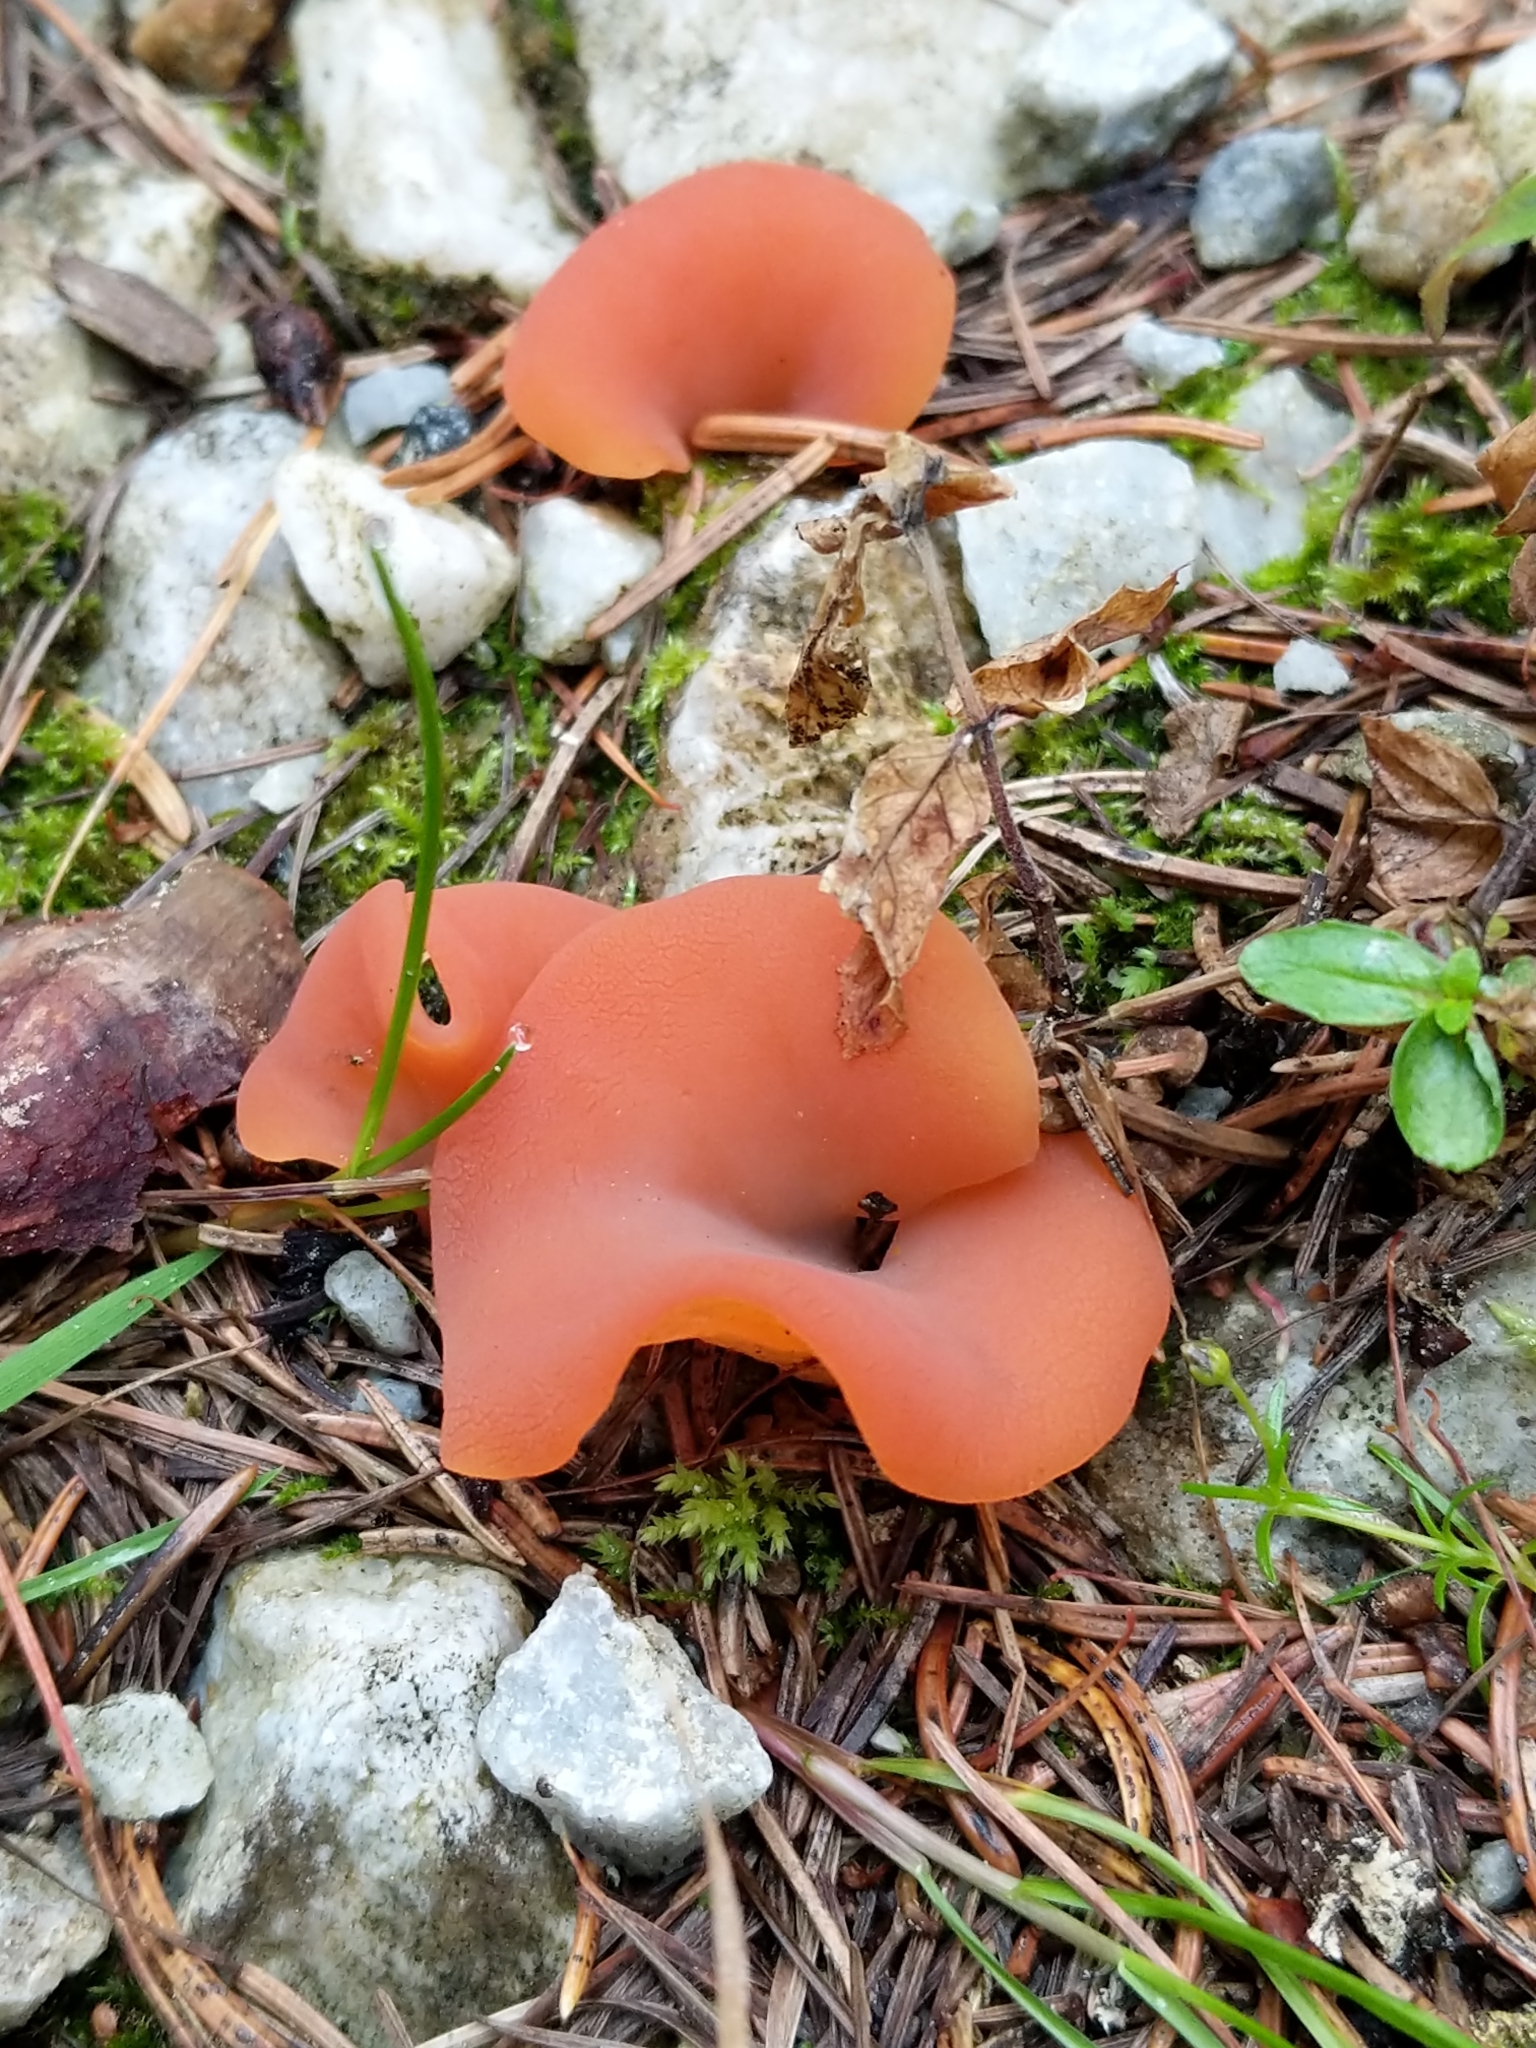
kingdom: Fungi
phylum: Basidiomycota
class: Agaricomycetes
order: Auriculariales
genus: Guepinia
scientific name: Guepinia helvelloides
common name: Salmon salad
